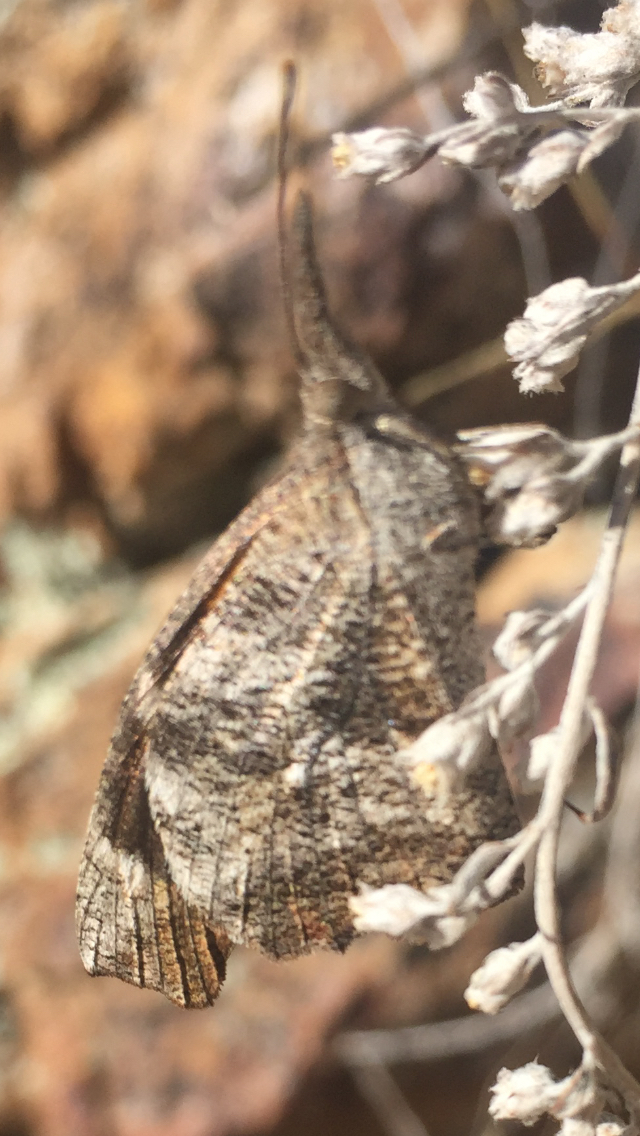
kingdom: Animalia
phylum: Arthropoda
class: Insecta
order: Lepidoptera
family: Nymphalidae
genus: Libytheana
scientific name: Libytheana carinenta
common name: American snout
